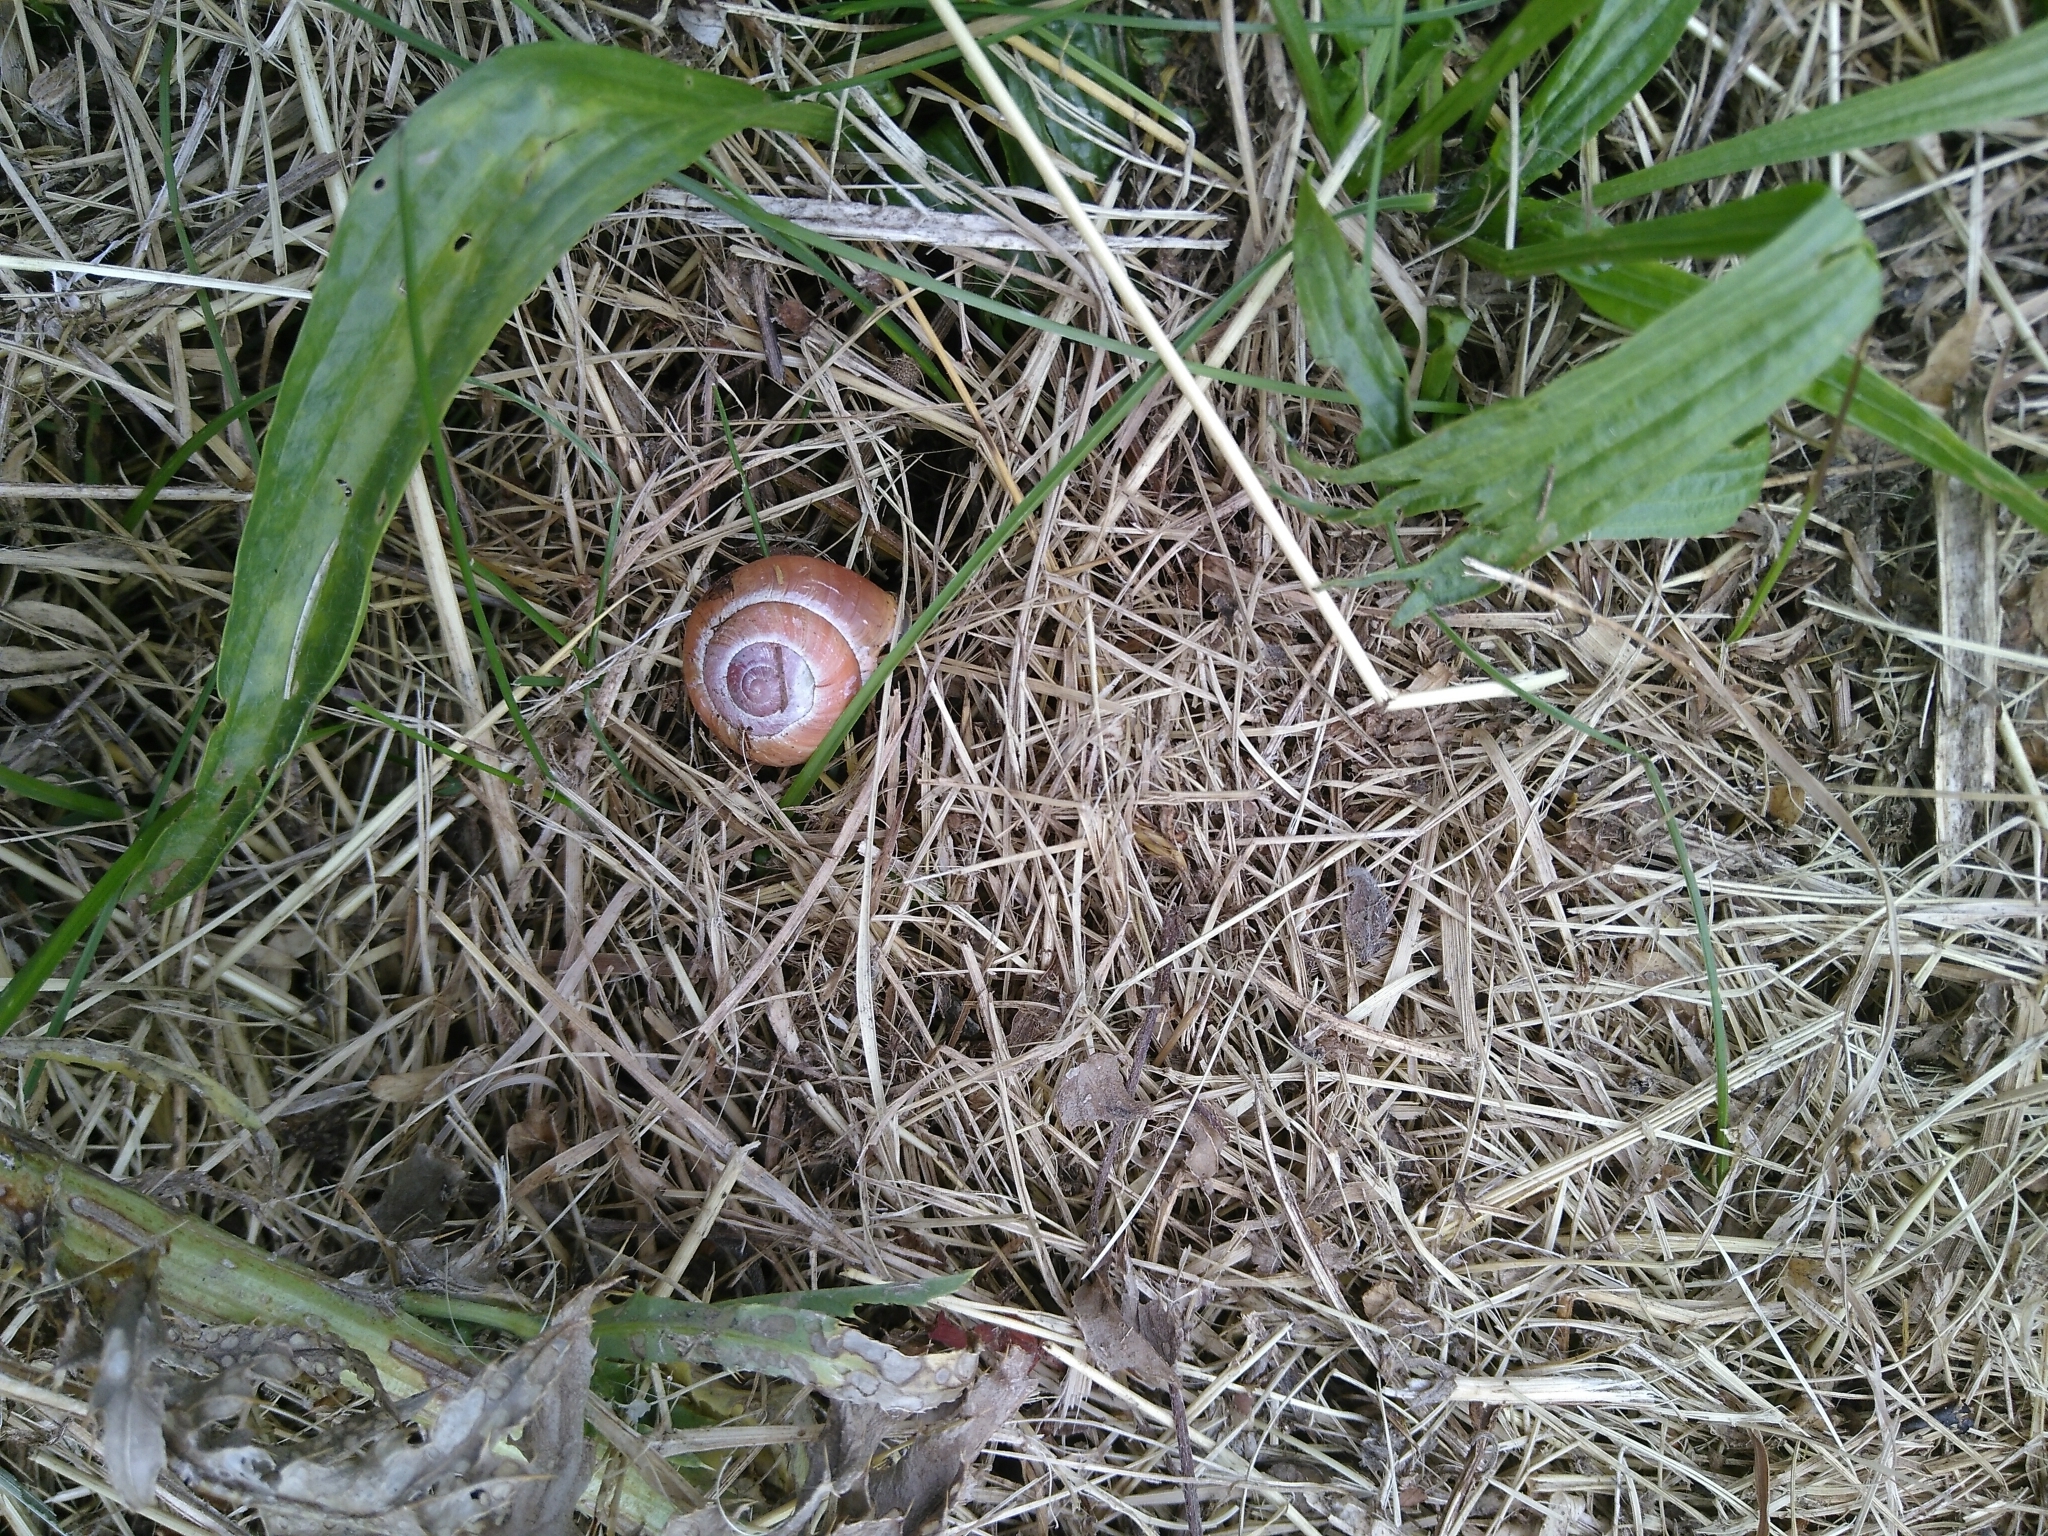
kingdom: Animalia
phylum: Mollusca
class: Gastropoda
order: Stylommatophora
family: Helicidae
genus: Cepaea
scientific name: Cepaea nemoralis
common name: Grovesnail
